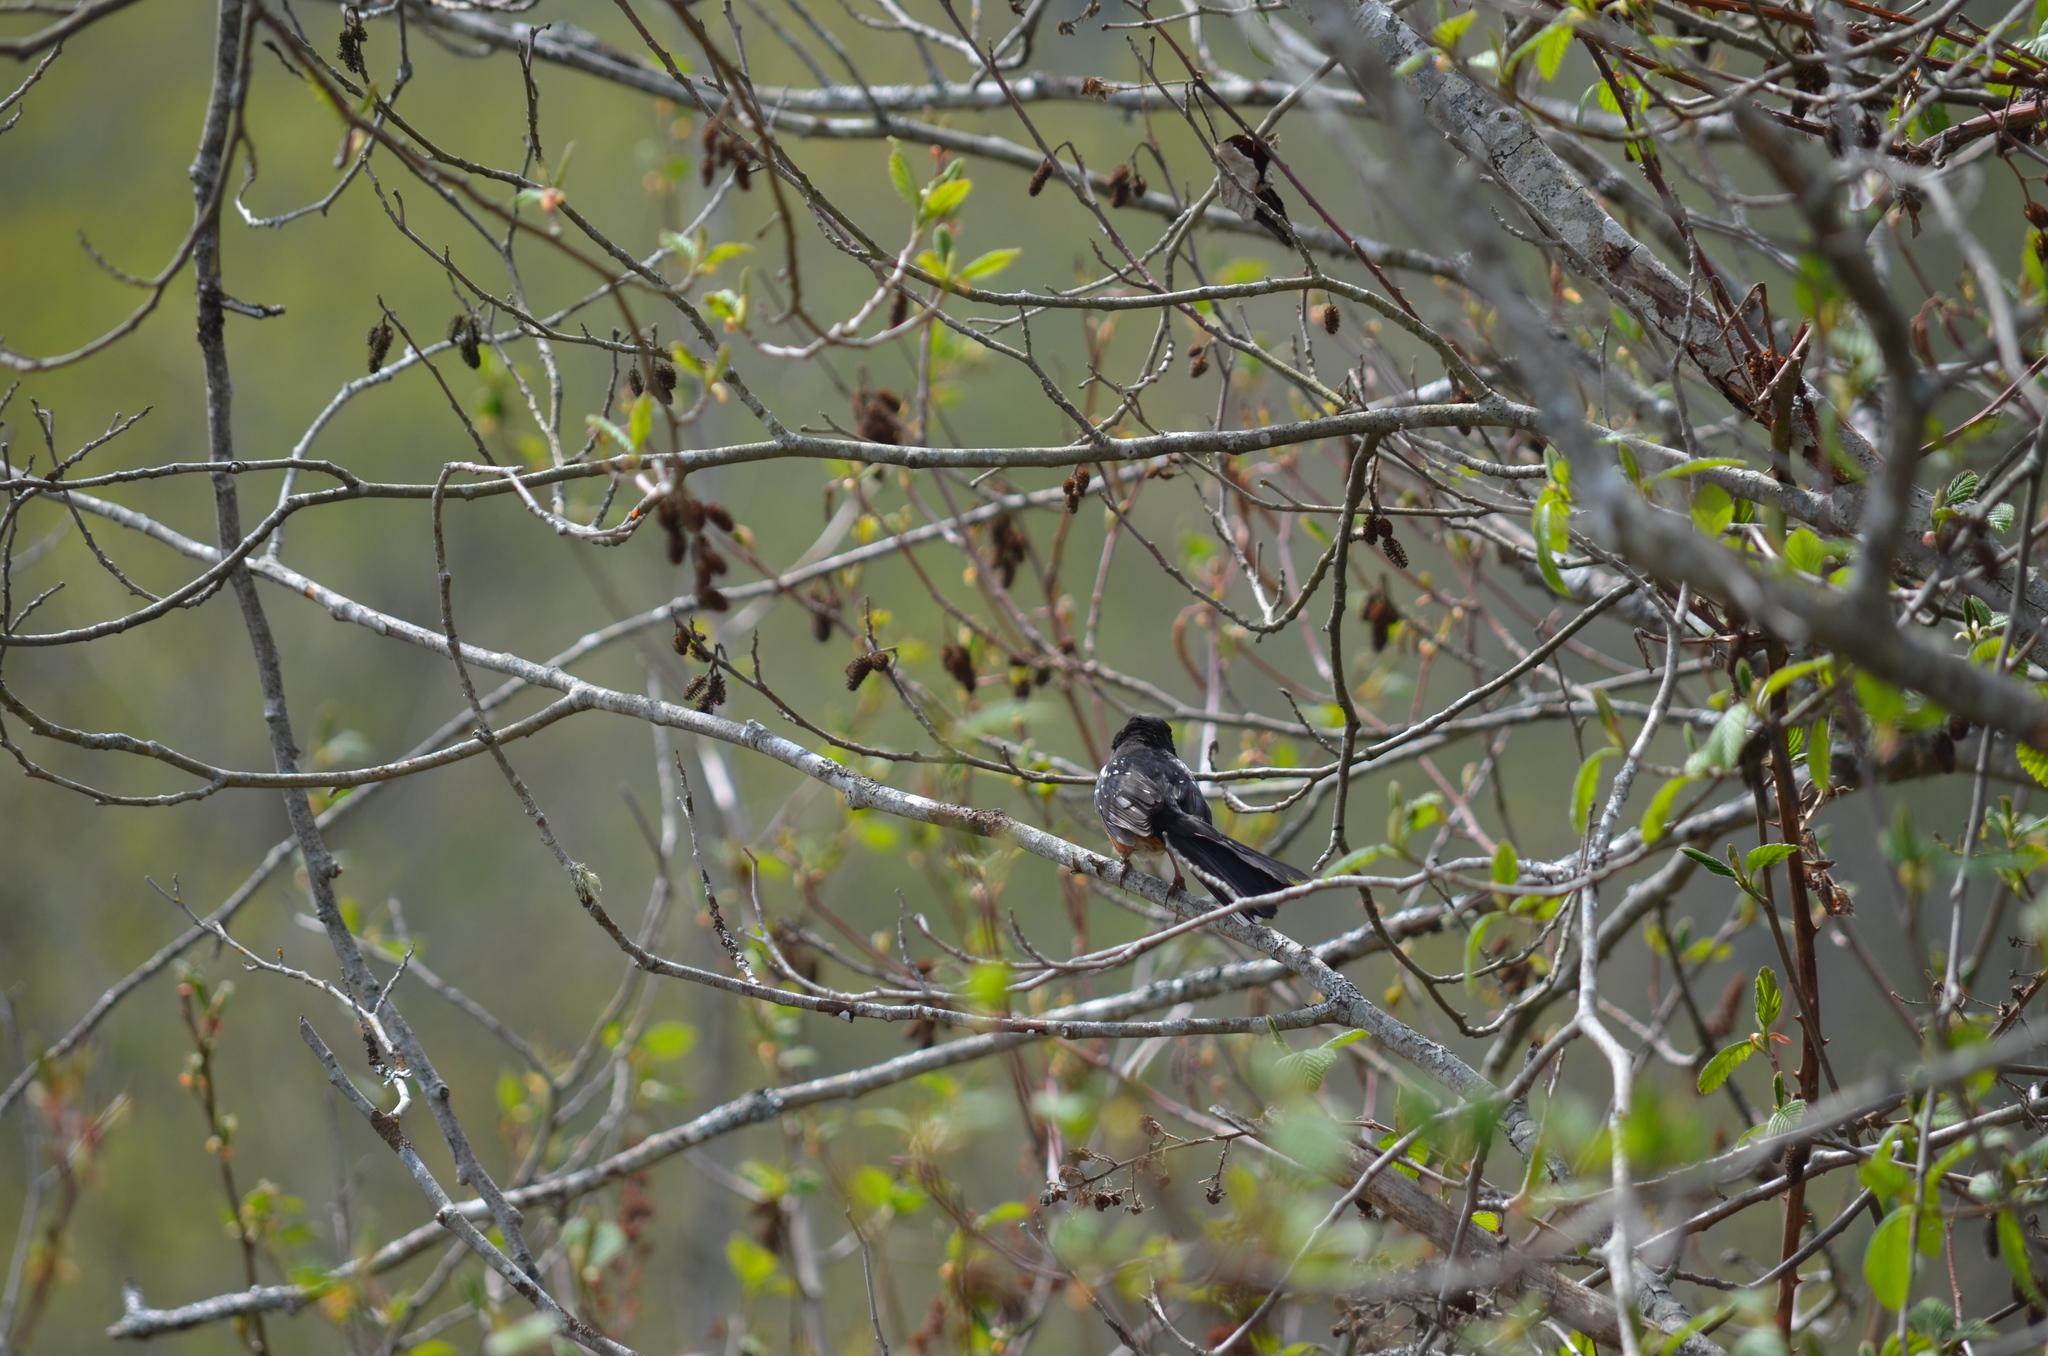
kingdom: Animalia
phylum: Chordata
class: Aves
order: Passeriformes
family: Passerellidae
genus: Pipilo
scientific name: Pipilo maculatus
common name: Spotted towhee
